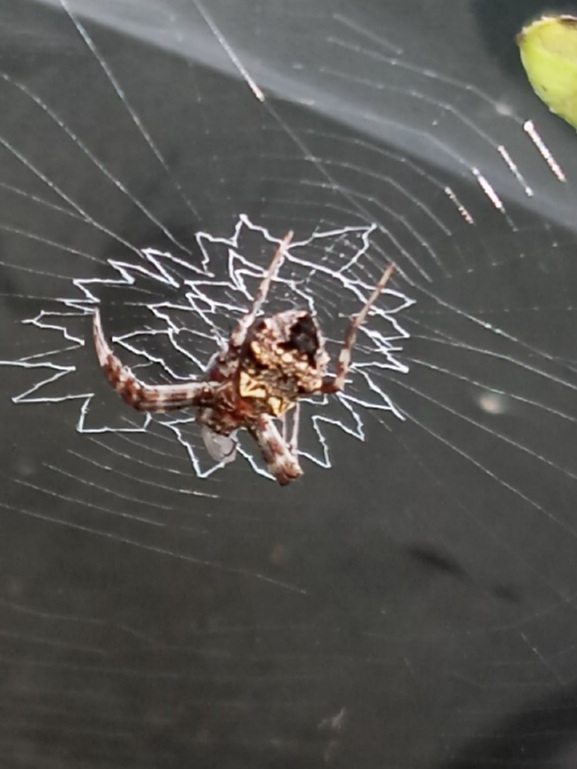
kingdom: Animalia
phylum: Arthropoda
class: Arachnida
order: Araneae
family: Araneidae
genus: Gea
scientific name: Gea heptagon
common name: Orb weavers
